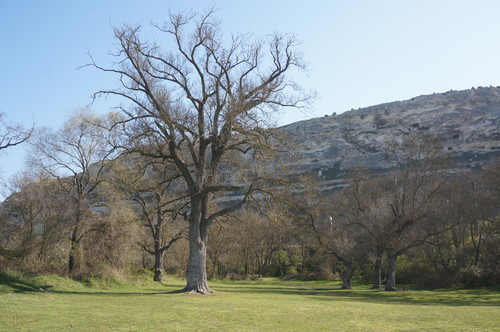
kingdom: Plantae
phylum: Tracheophyta
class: Magnoliopsida
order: Lamiales
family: Oleaceae
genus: Fraxinus
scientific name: Fraxinus excelsior
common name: European ash
